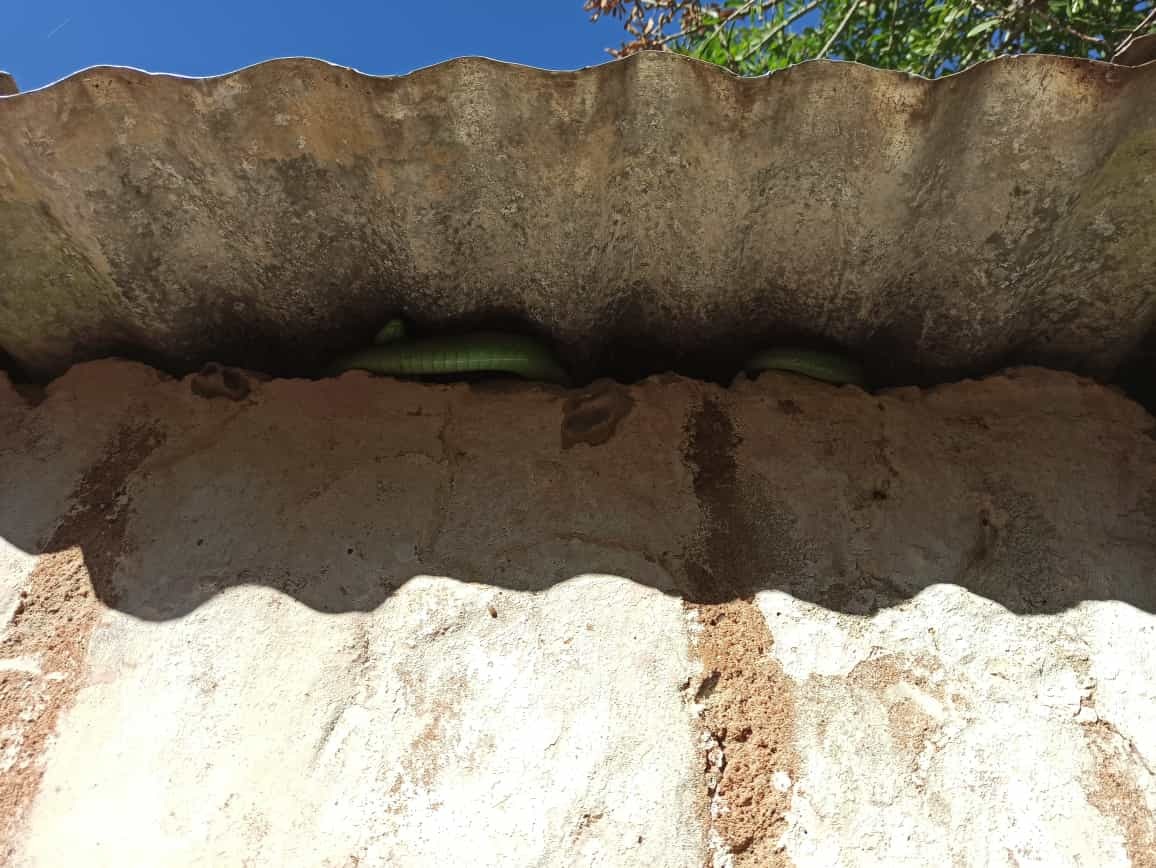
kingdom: Animalia
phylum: Chordata
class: Squamata
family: Colubridae
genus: Philodryas
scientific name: Philodryas olfersii
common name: Lichtenstein's green racer
